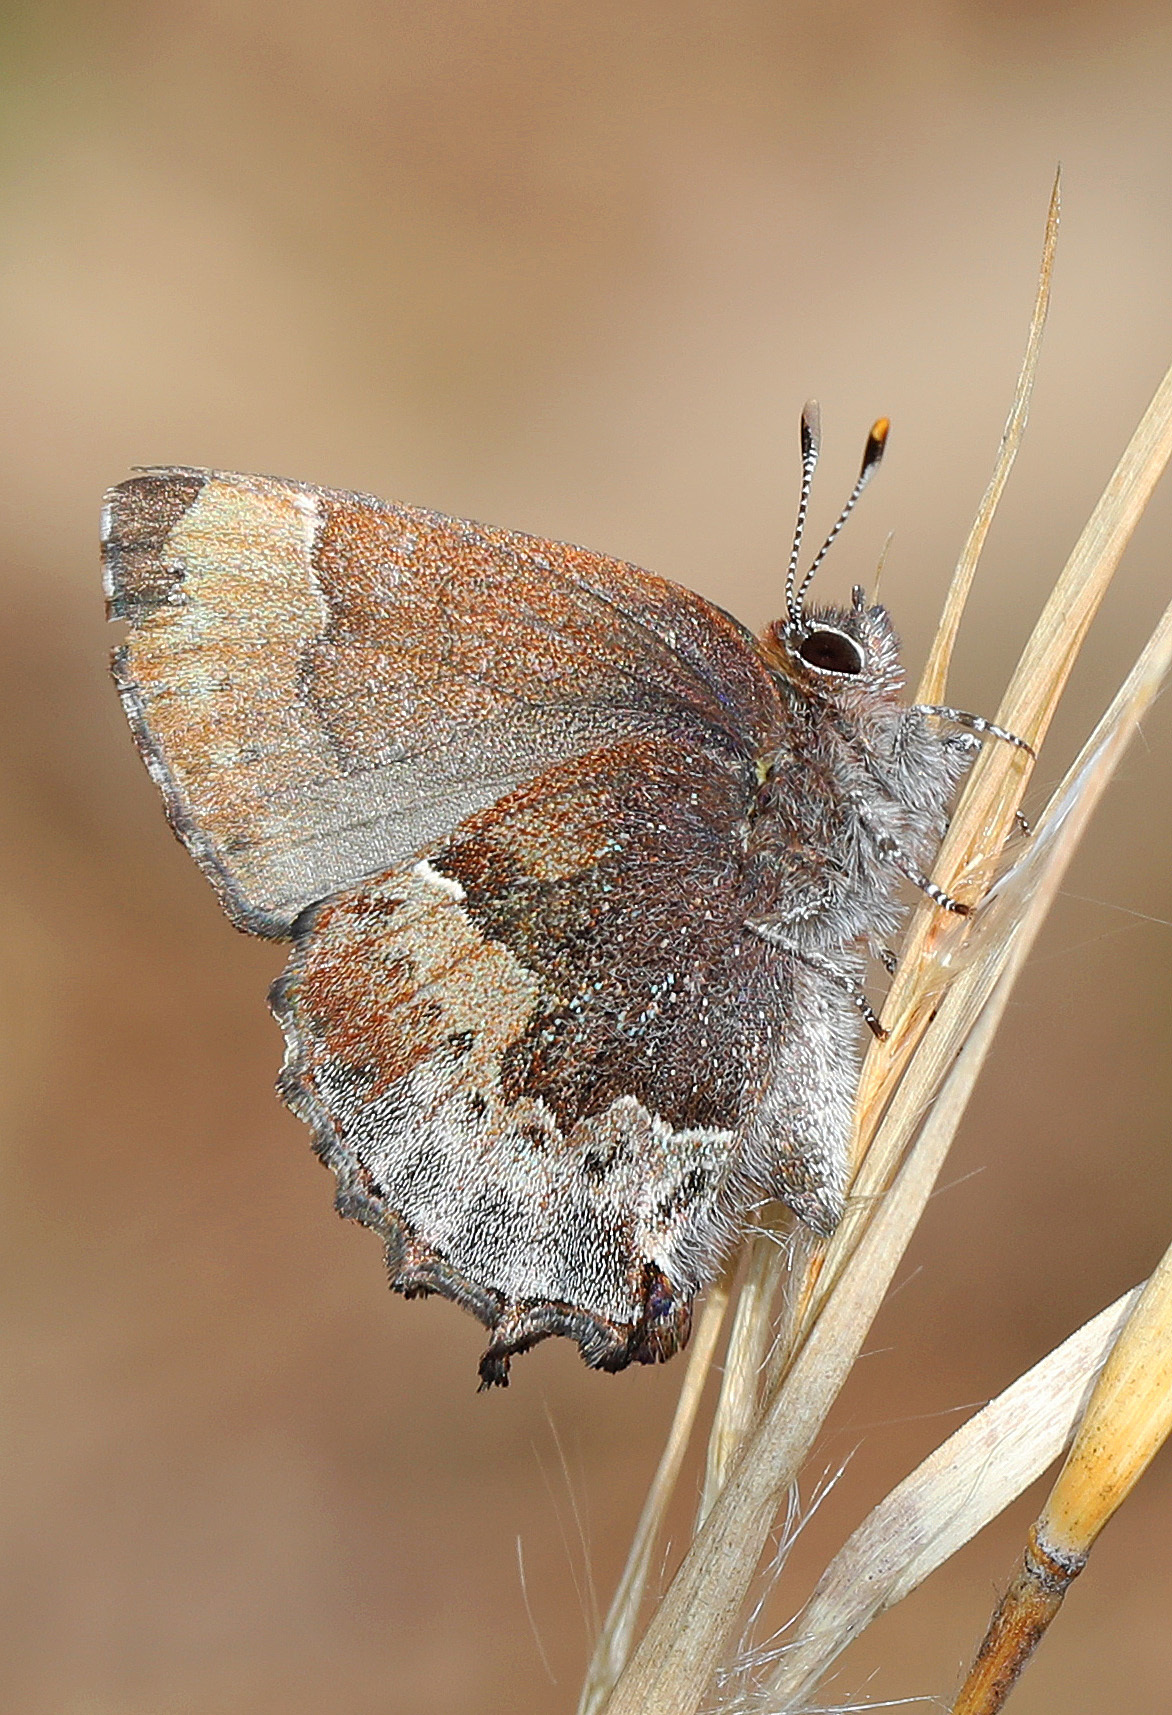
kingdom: Animalia
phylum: Arthropoda
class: Insecta
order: Lepidoptera
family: Lycaenidae
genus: Incisalia
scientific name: Incisalia henrici
